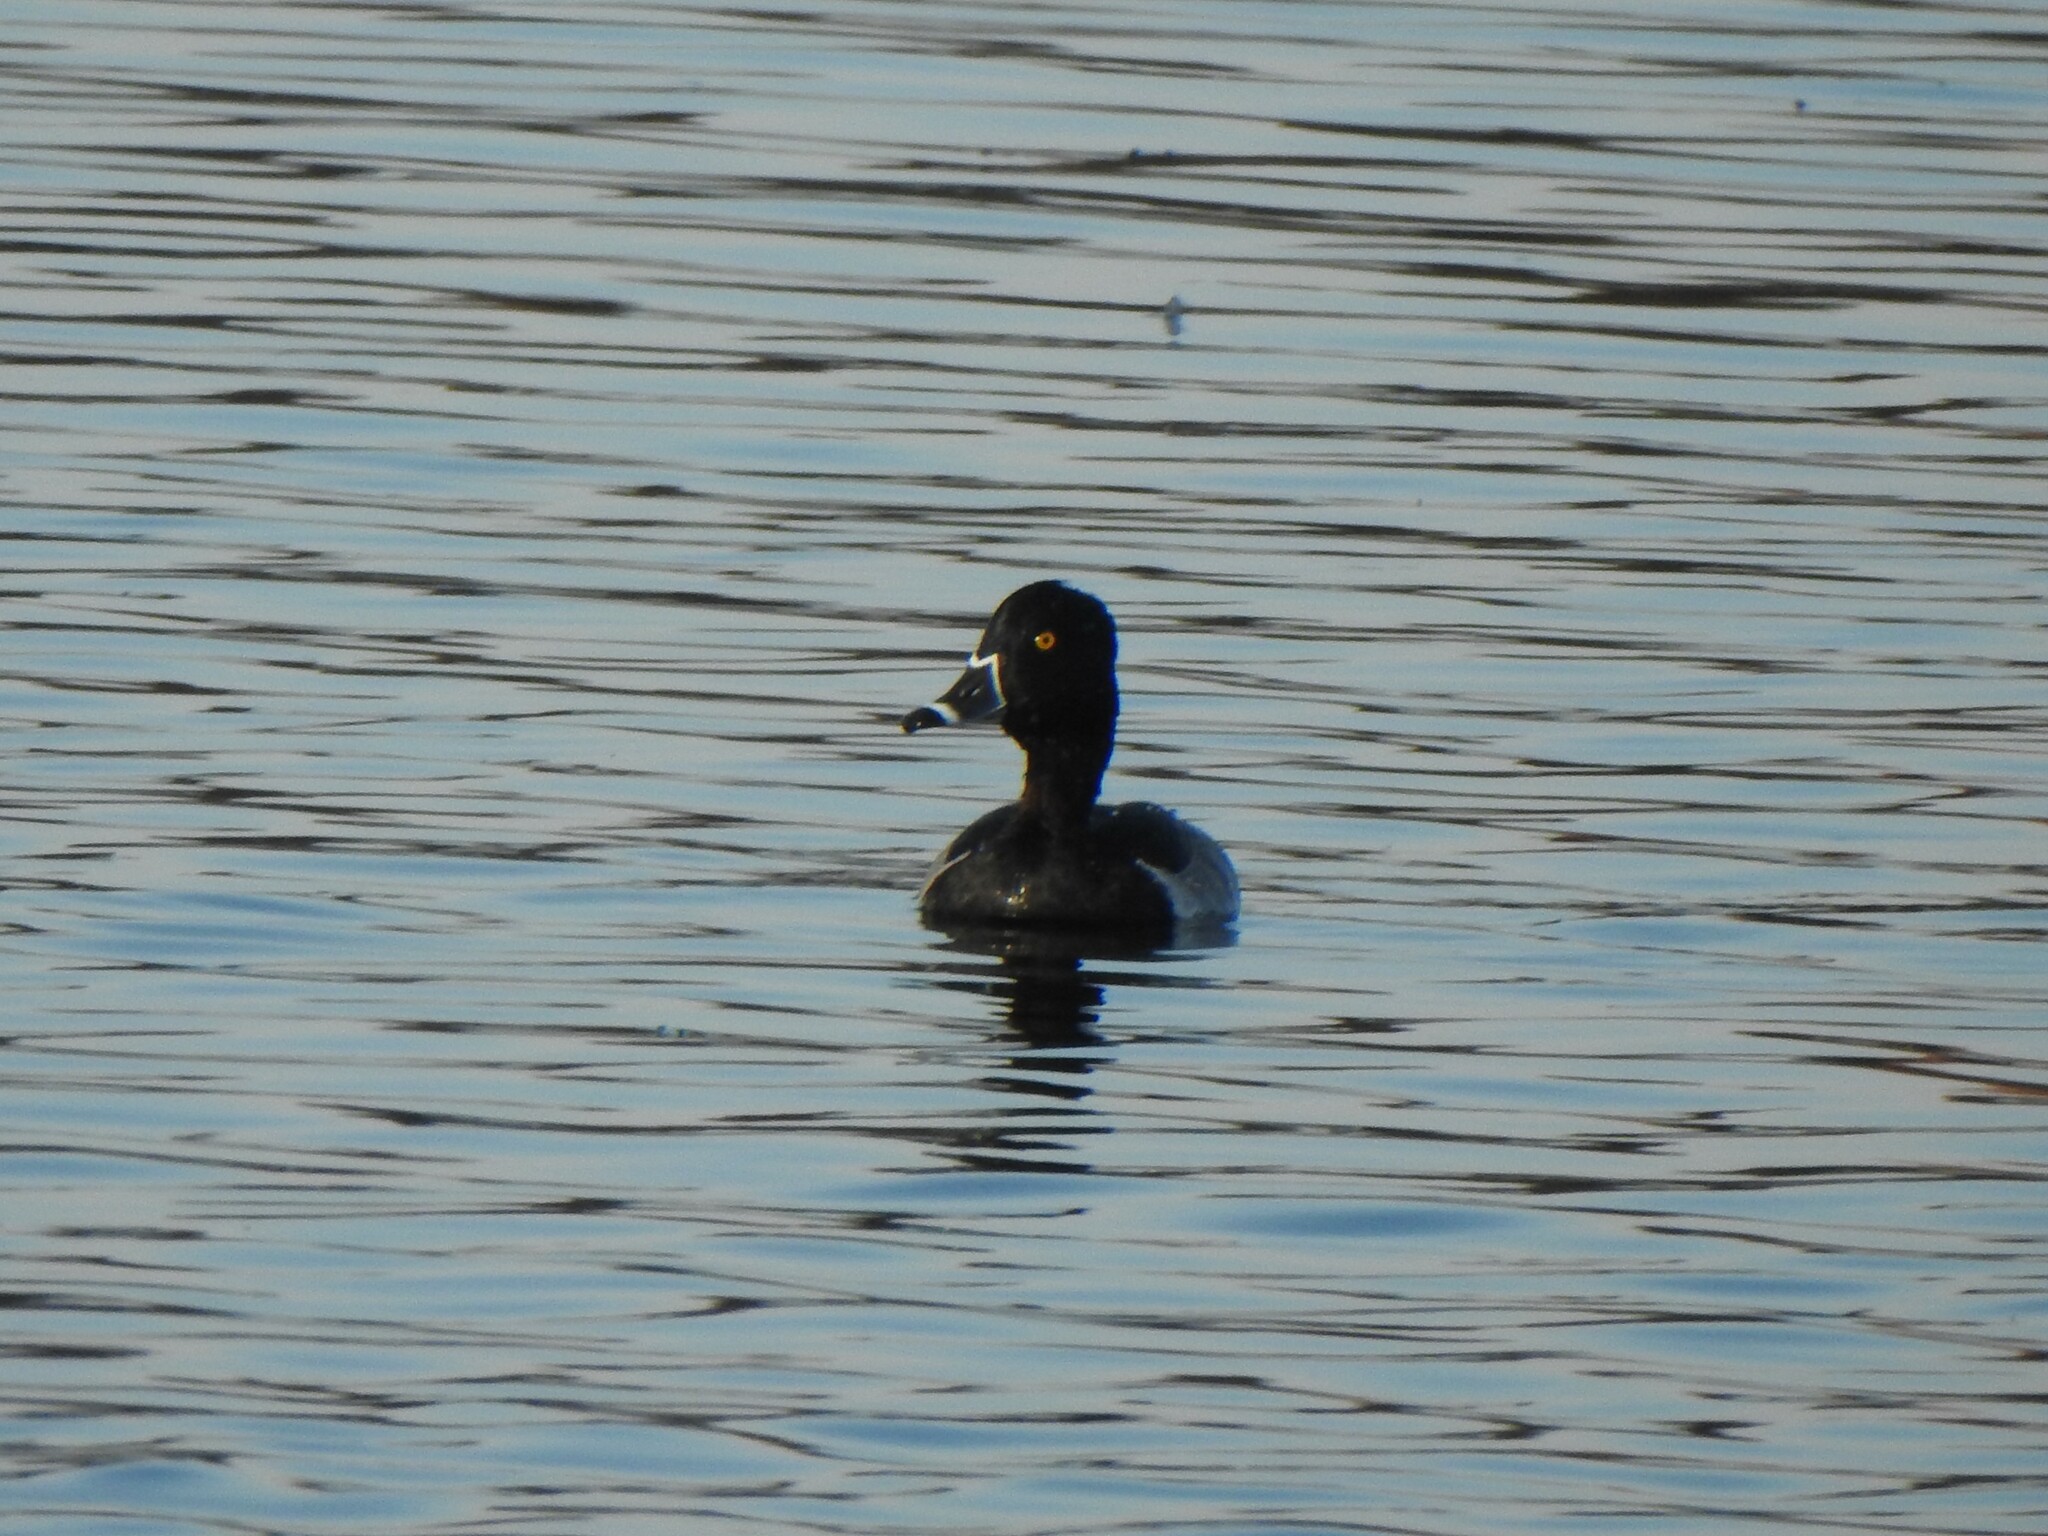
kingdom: Animalia
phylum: Chordata
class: Aves
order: Anseriformes
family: Anatidae
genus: Aythya
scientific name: Aythya collaris
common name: Ring-necked duck
